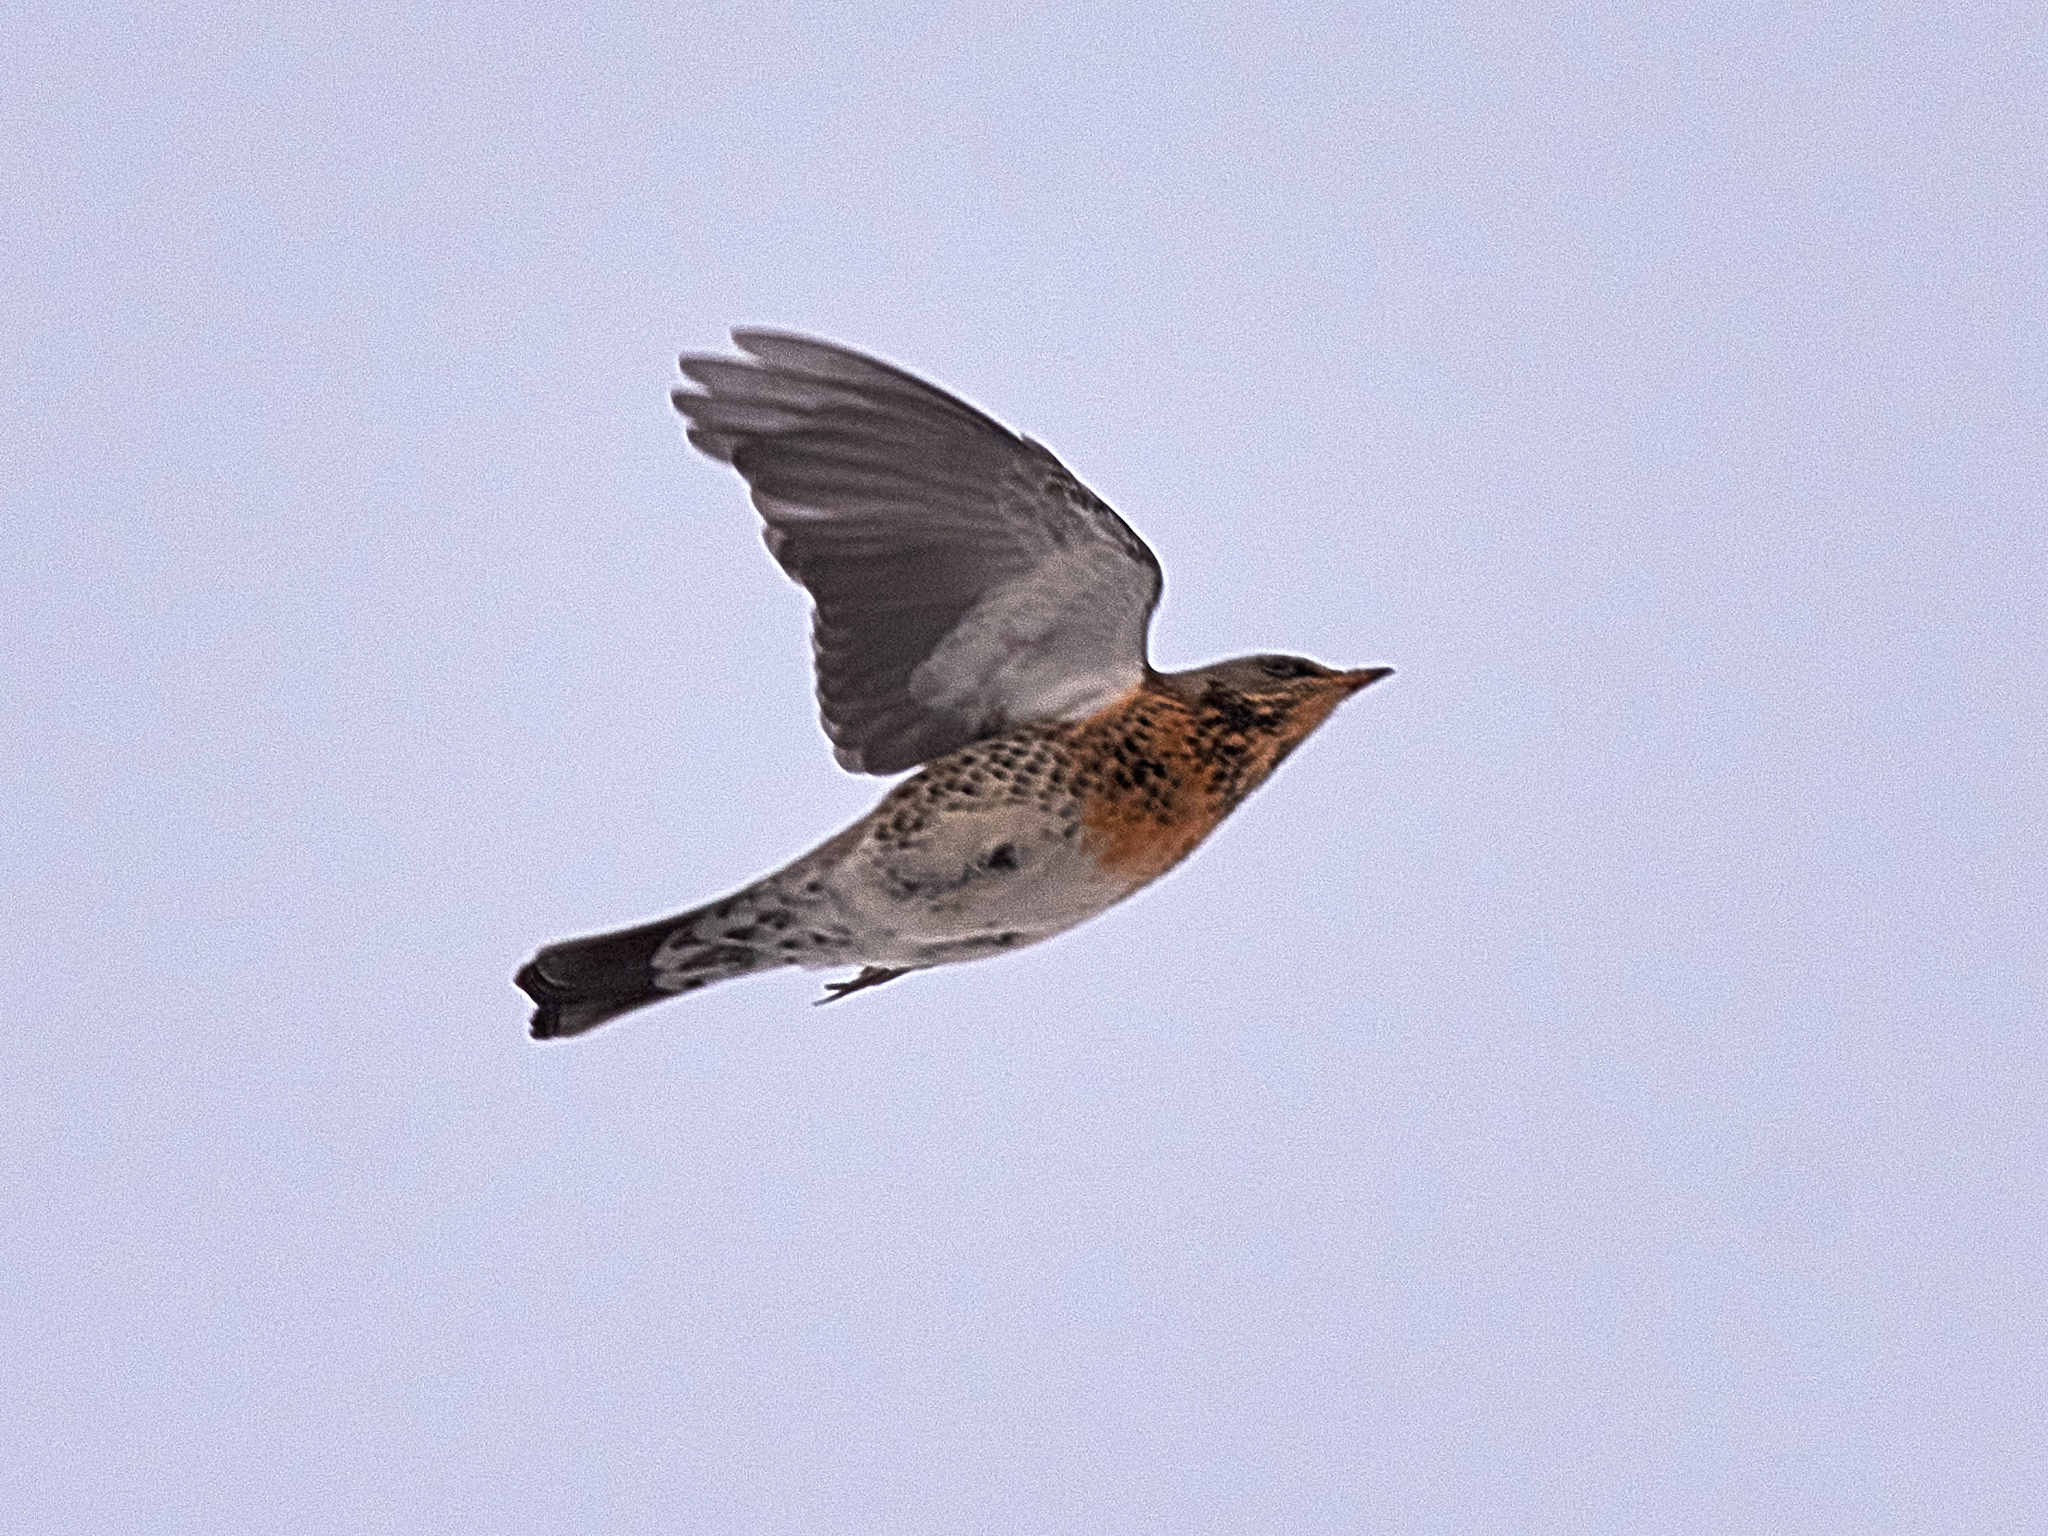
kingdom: Animalia
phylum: Chordata
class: Aves
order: Passeriformes
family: Turdidae
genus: Turdus
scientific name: Turdus pilaris
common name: Fieldfare
